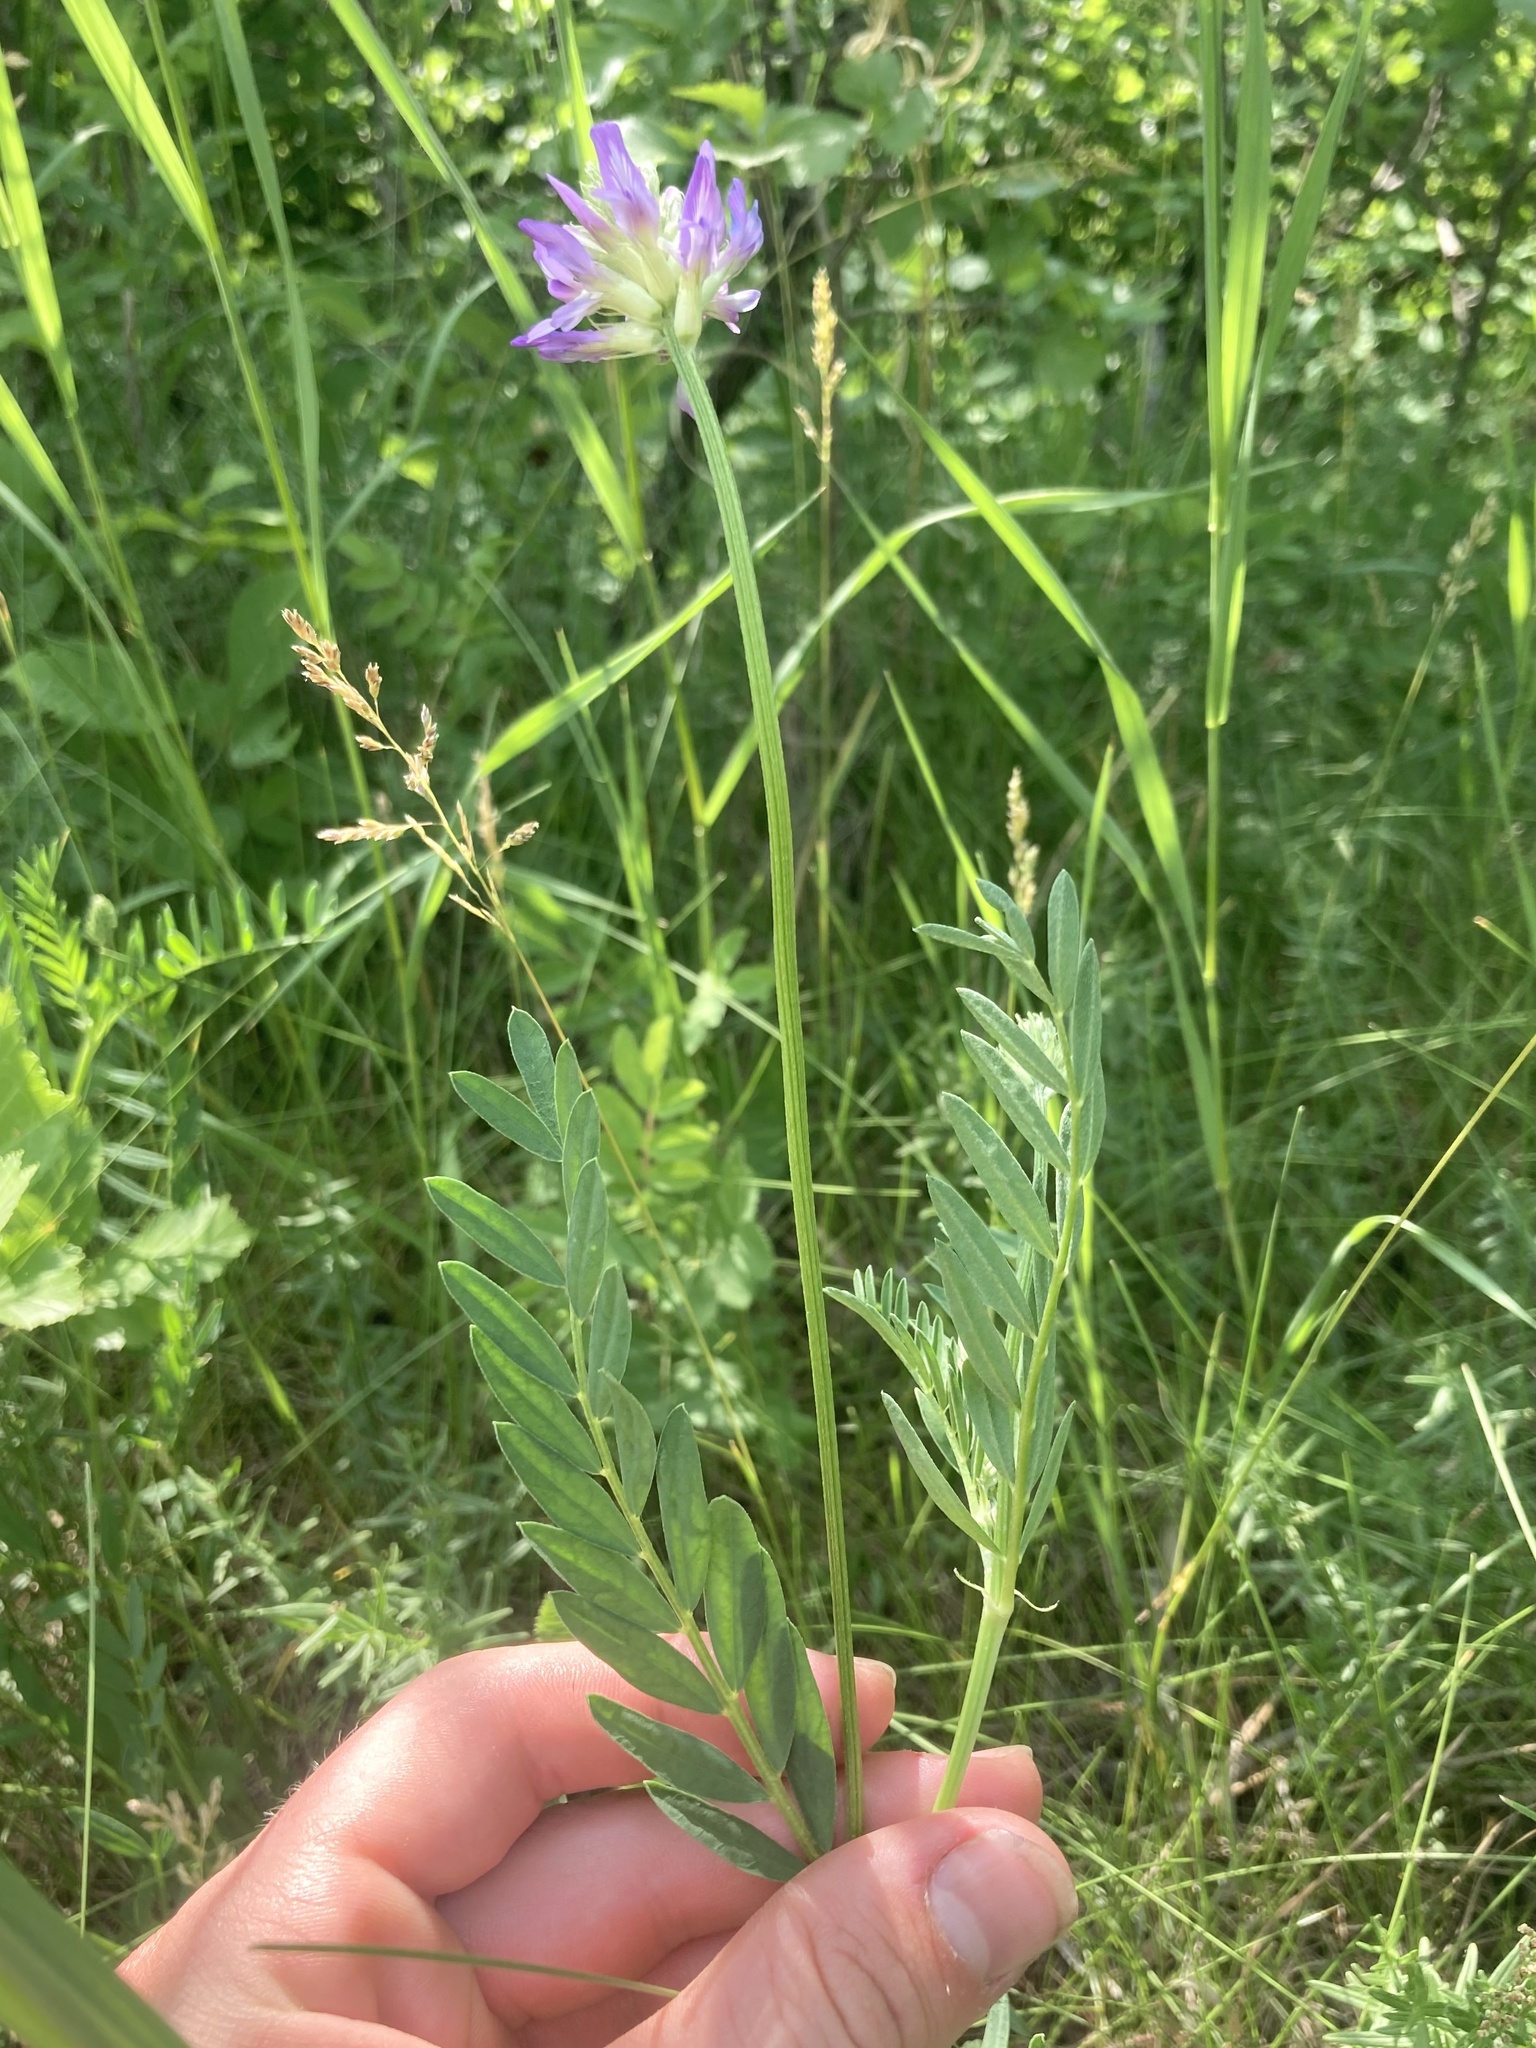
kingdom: Plantae
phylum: Tracheophyta
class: Magnoliopsida
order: Fabales
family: Fabaceae
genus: Astragalus
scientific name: Astragalus laxmannii
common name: Laxmann's milk-vetch
